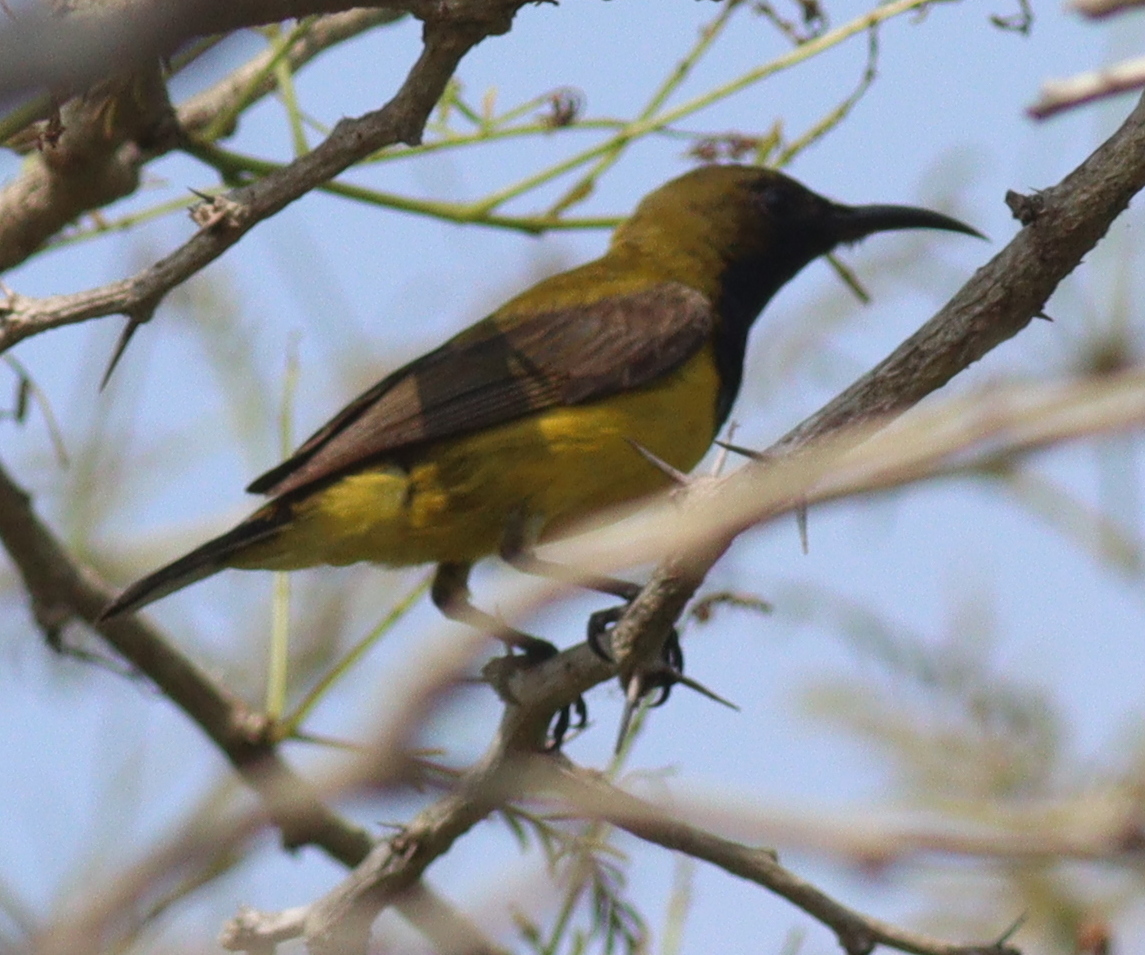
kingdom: Animalia
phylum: Chordata
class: Aves
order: Passeriformes
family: Nectariniidae
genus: Cinnyris
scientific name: Cinnyris
